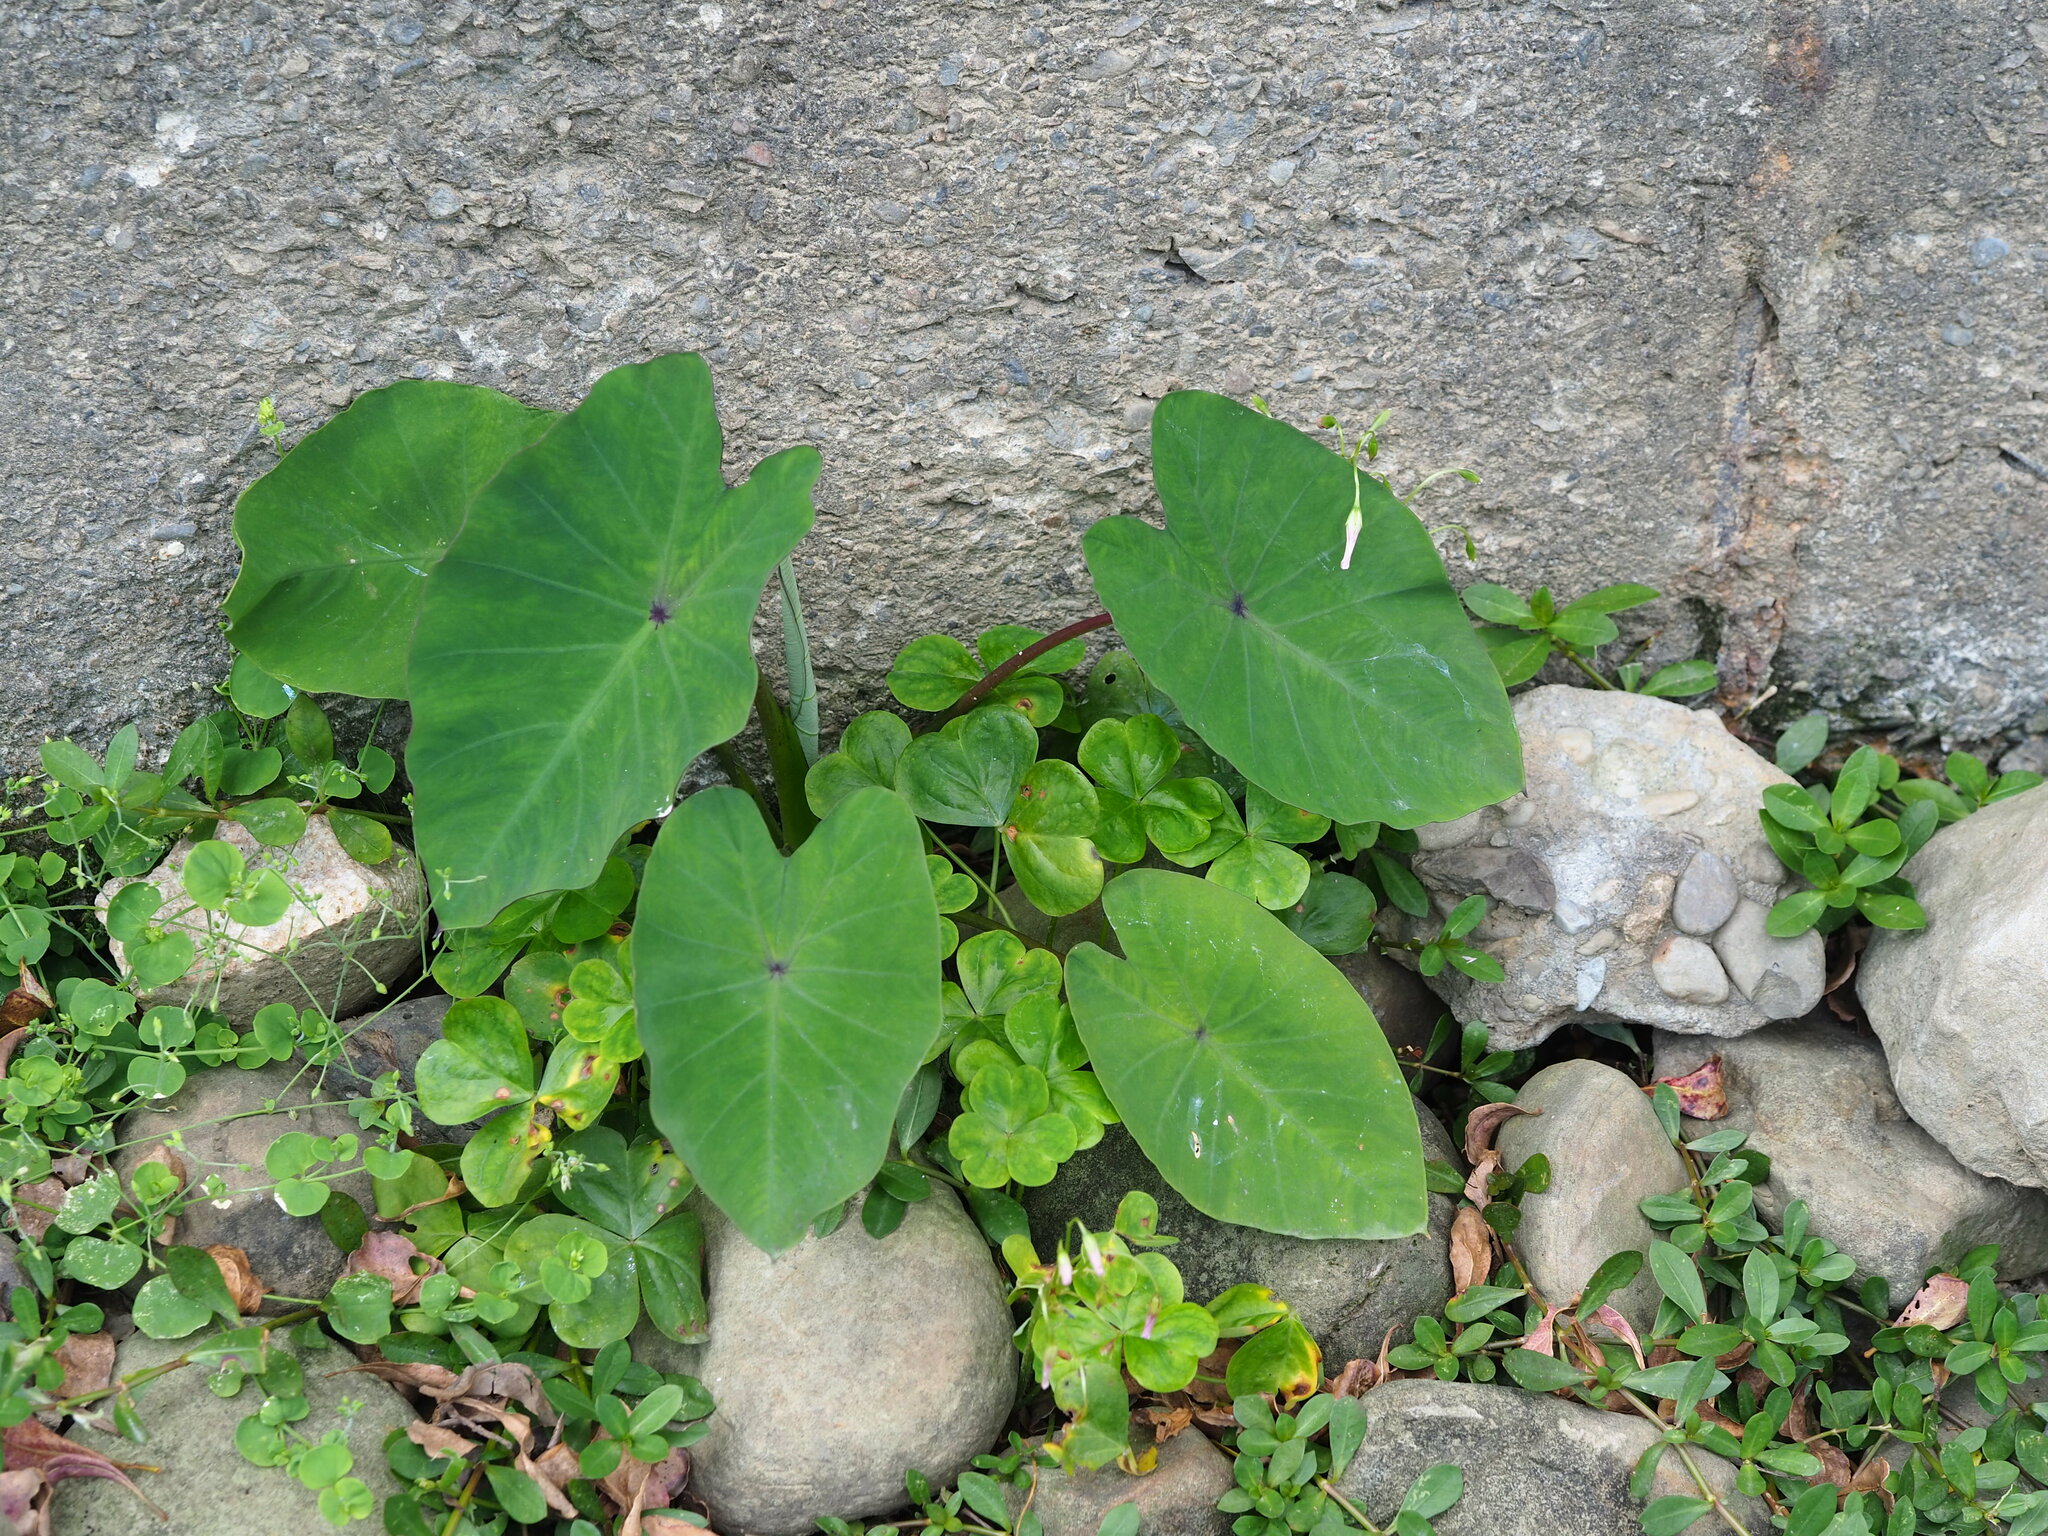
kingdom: Plantae
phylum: Tracheophyta
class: Liliopsida
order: Alismatales
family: Araceae
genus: Colocasia
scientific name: Colocasia esculenta
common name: Taro
